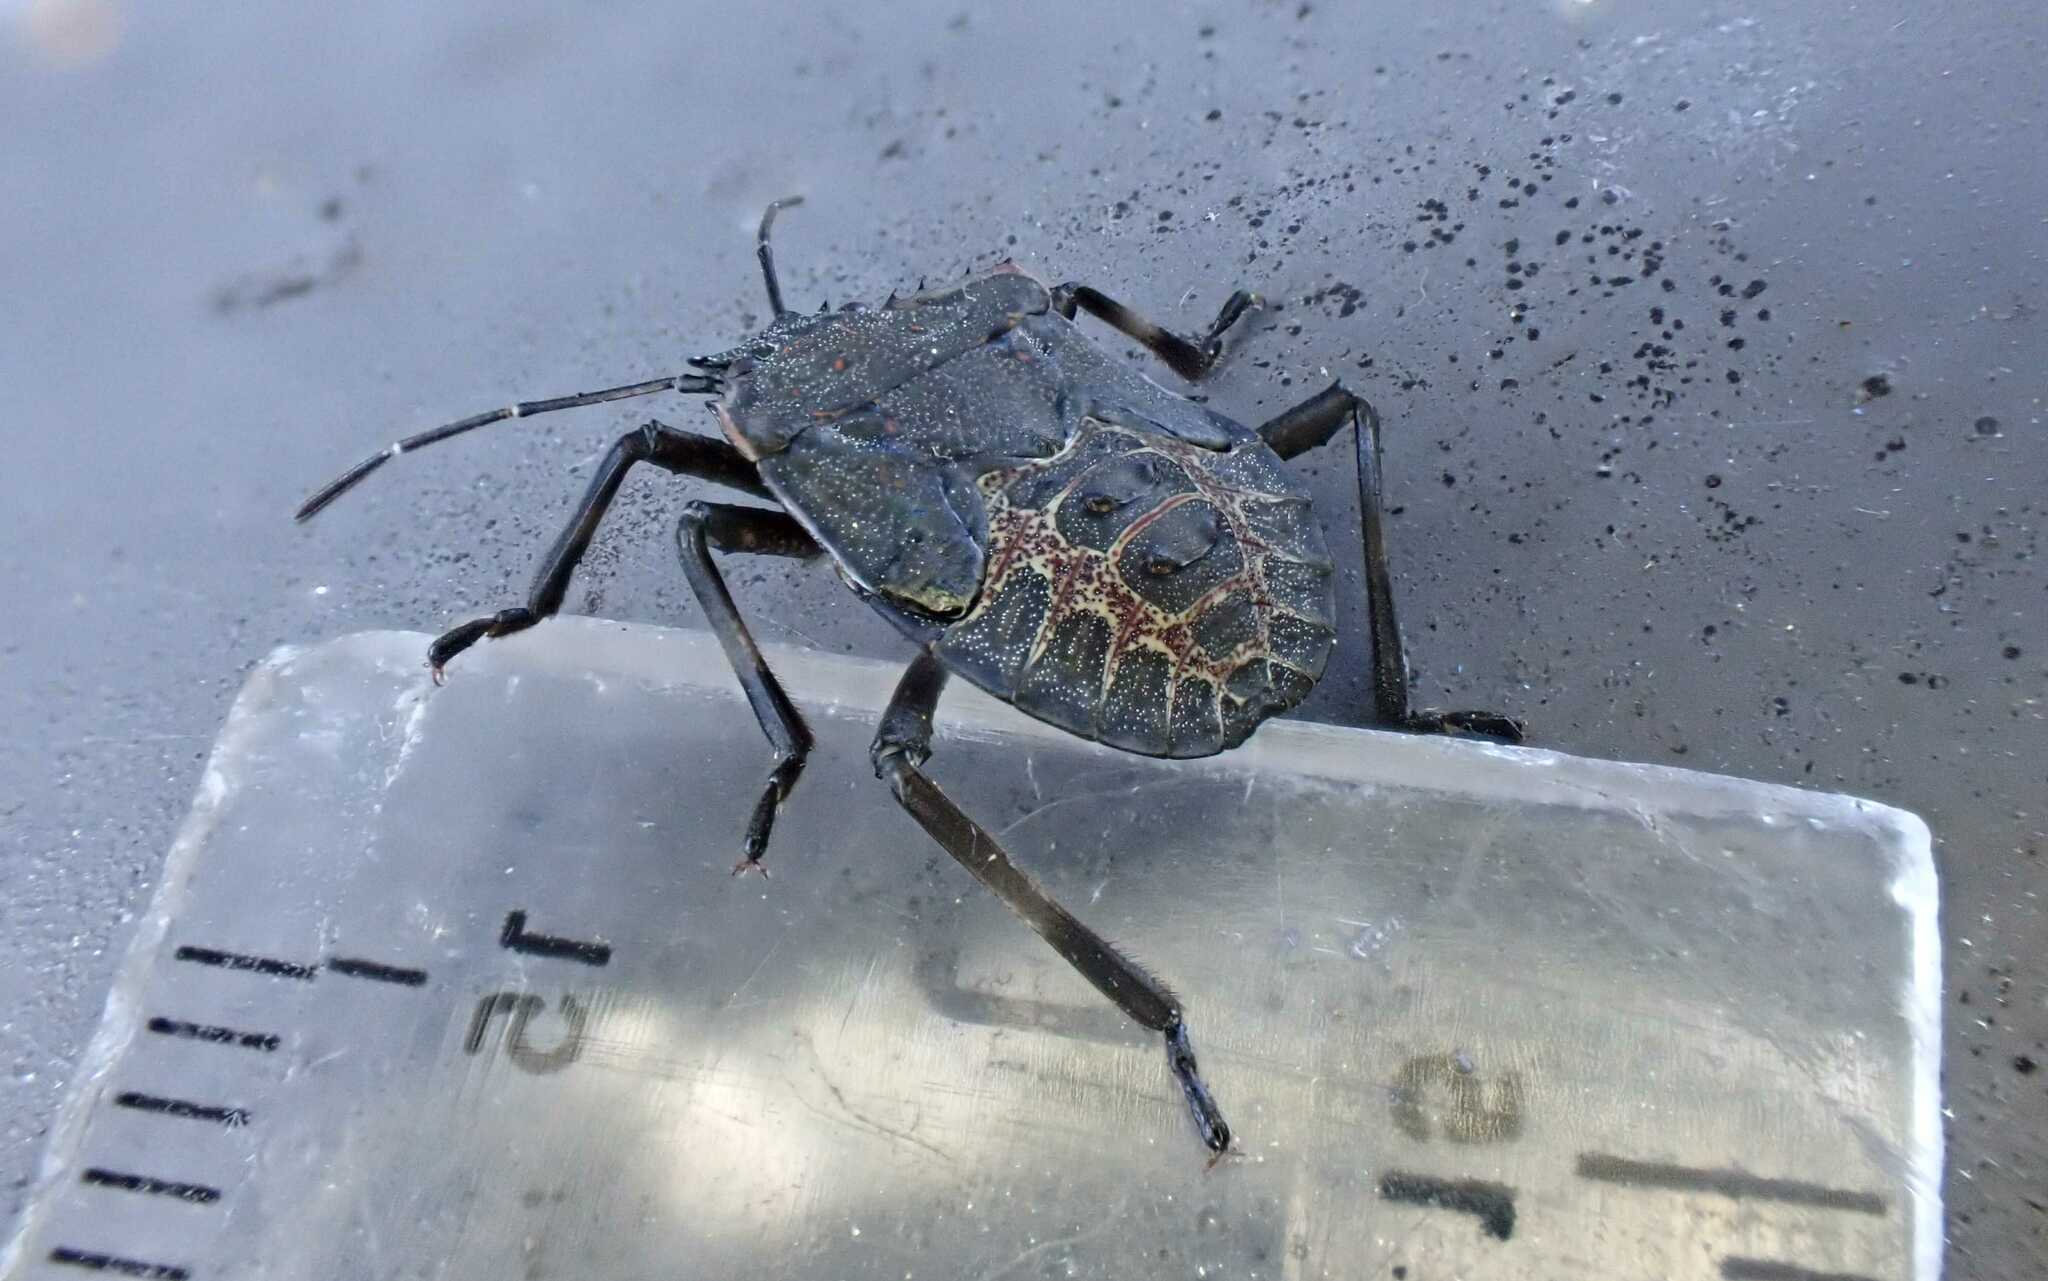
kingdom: Animalia
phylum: Arthropoda
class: Insecta
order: Hemiptera
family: Pentatomidae
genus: Halyomorpha
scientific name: Halyomorpha halys
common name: Brown marmorated stink bug
